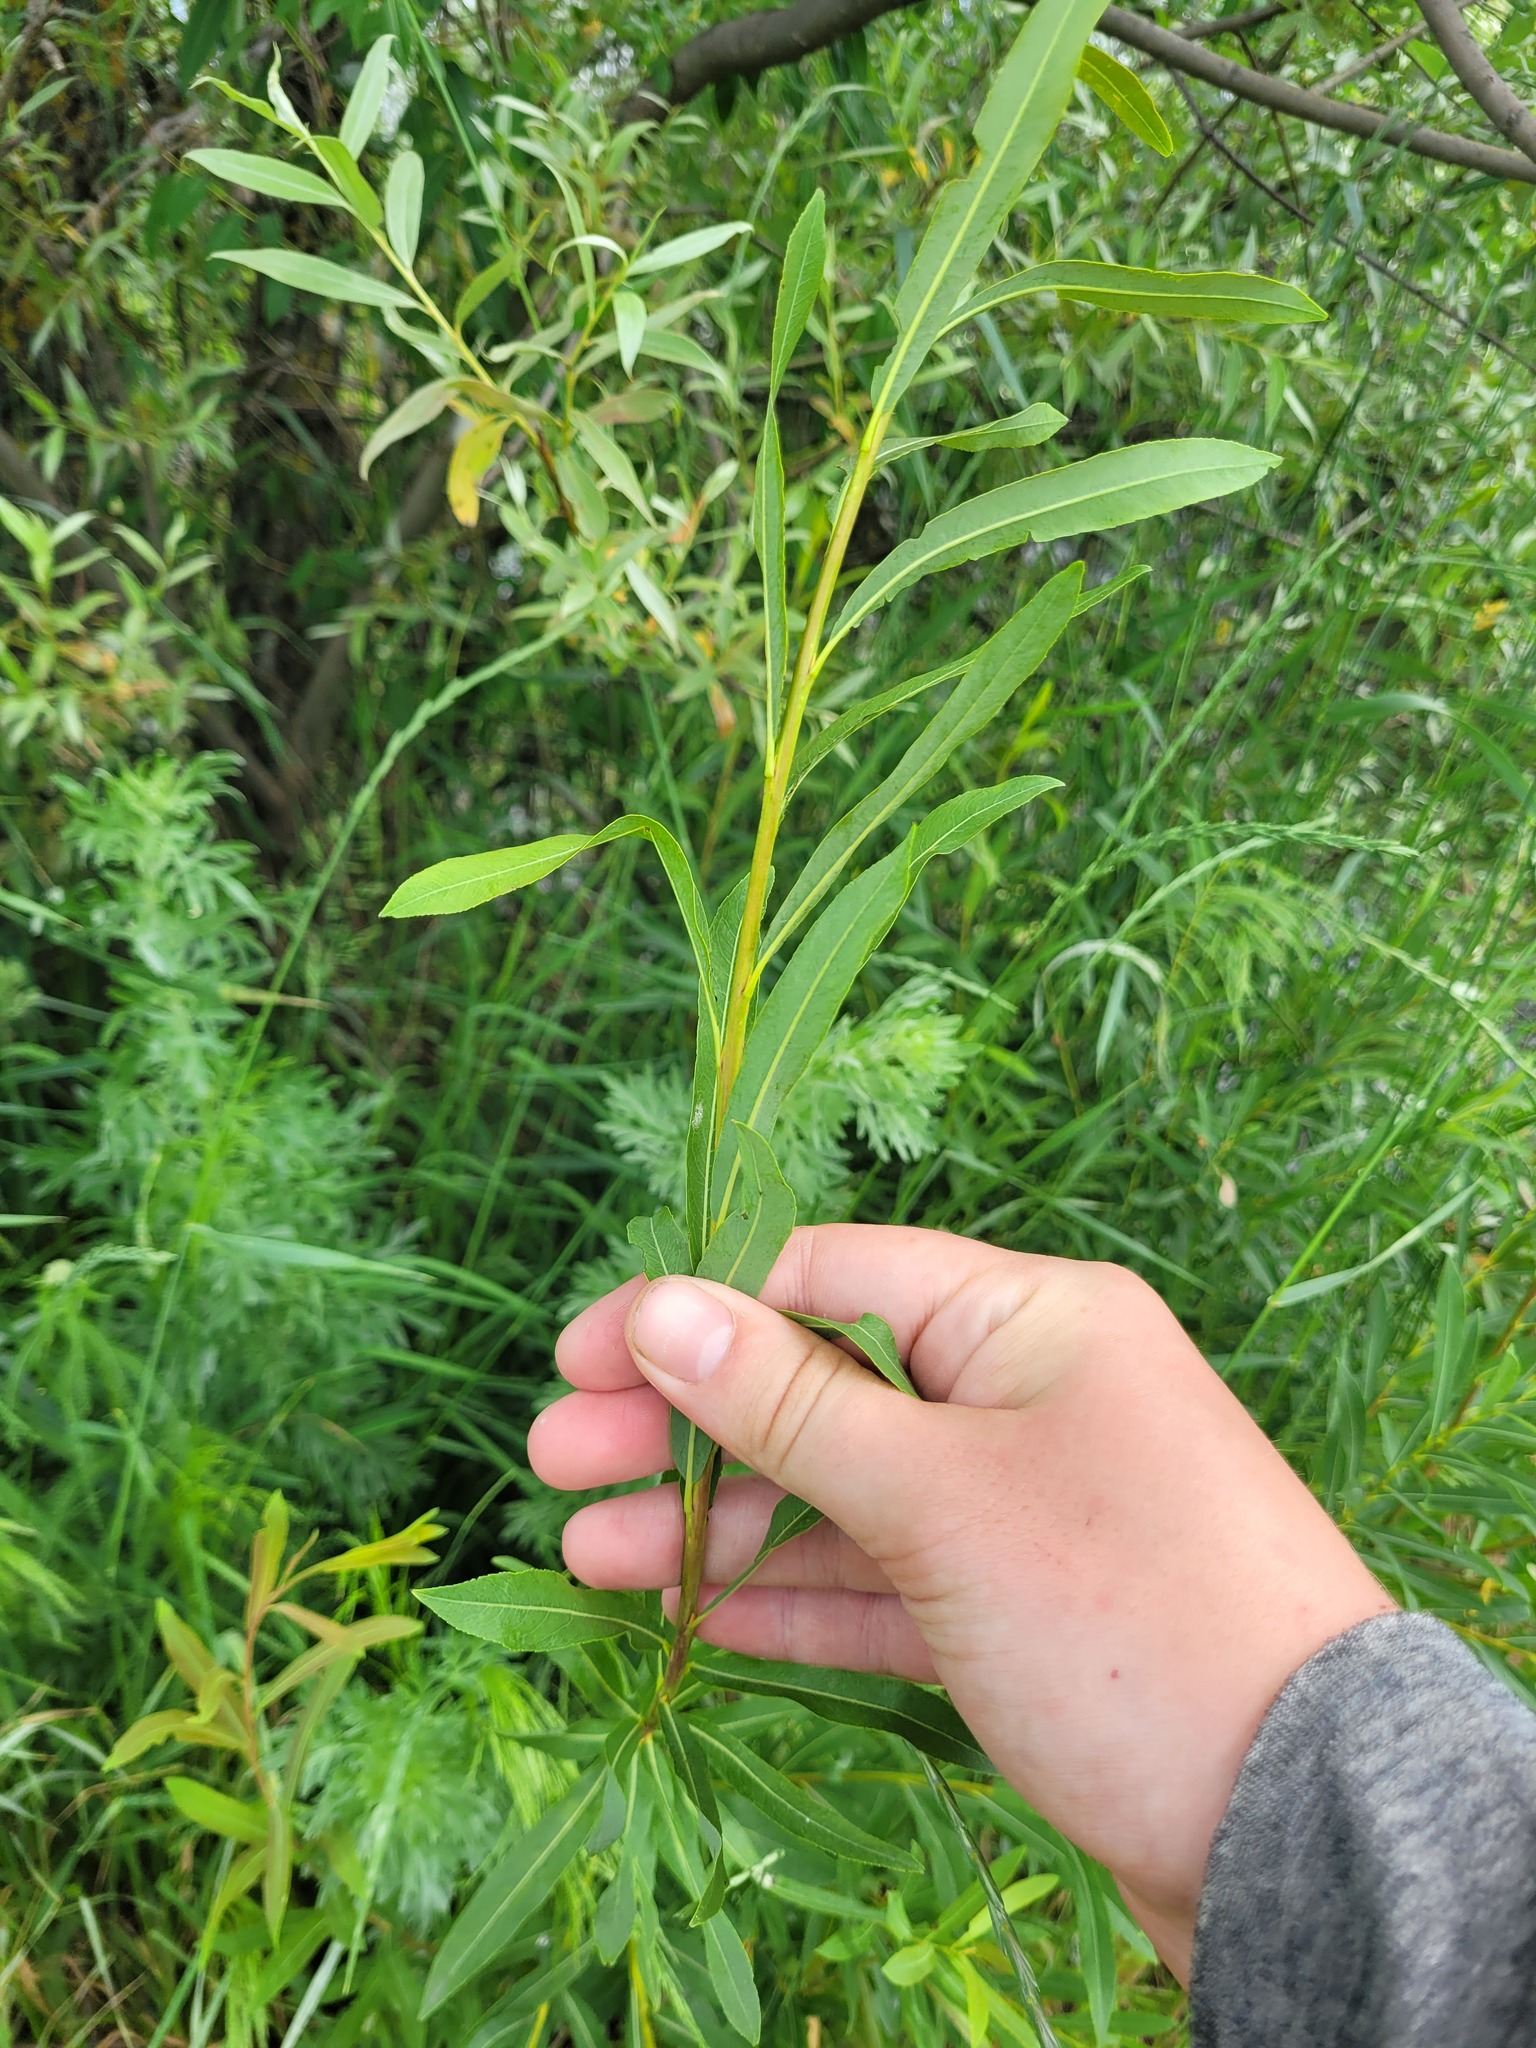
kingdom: Plantae
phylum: Tracheophyta
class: Magnoliopsida
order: Malpighiales
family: Salicaceae
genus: Salix
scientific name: Salix vinogradovii
